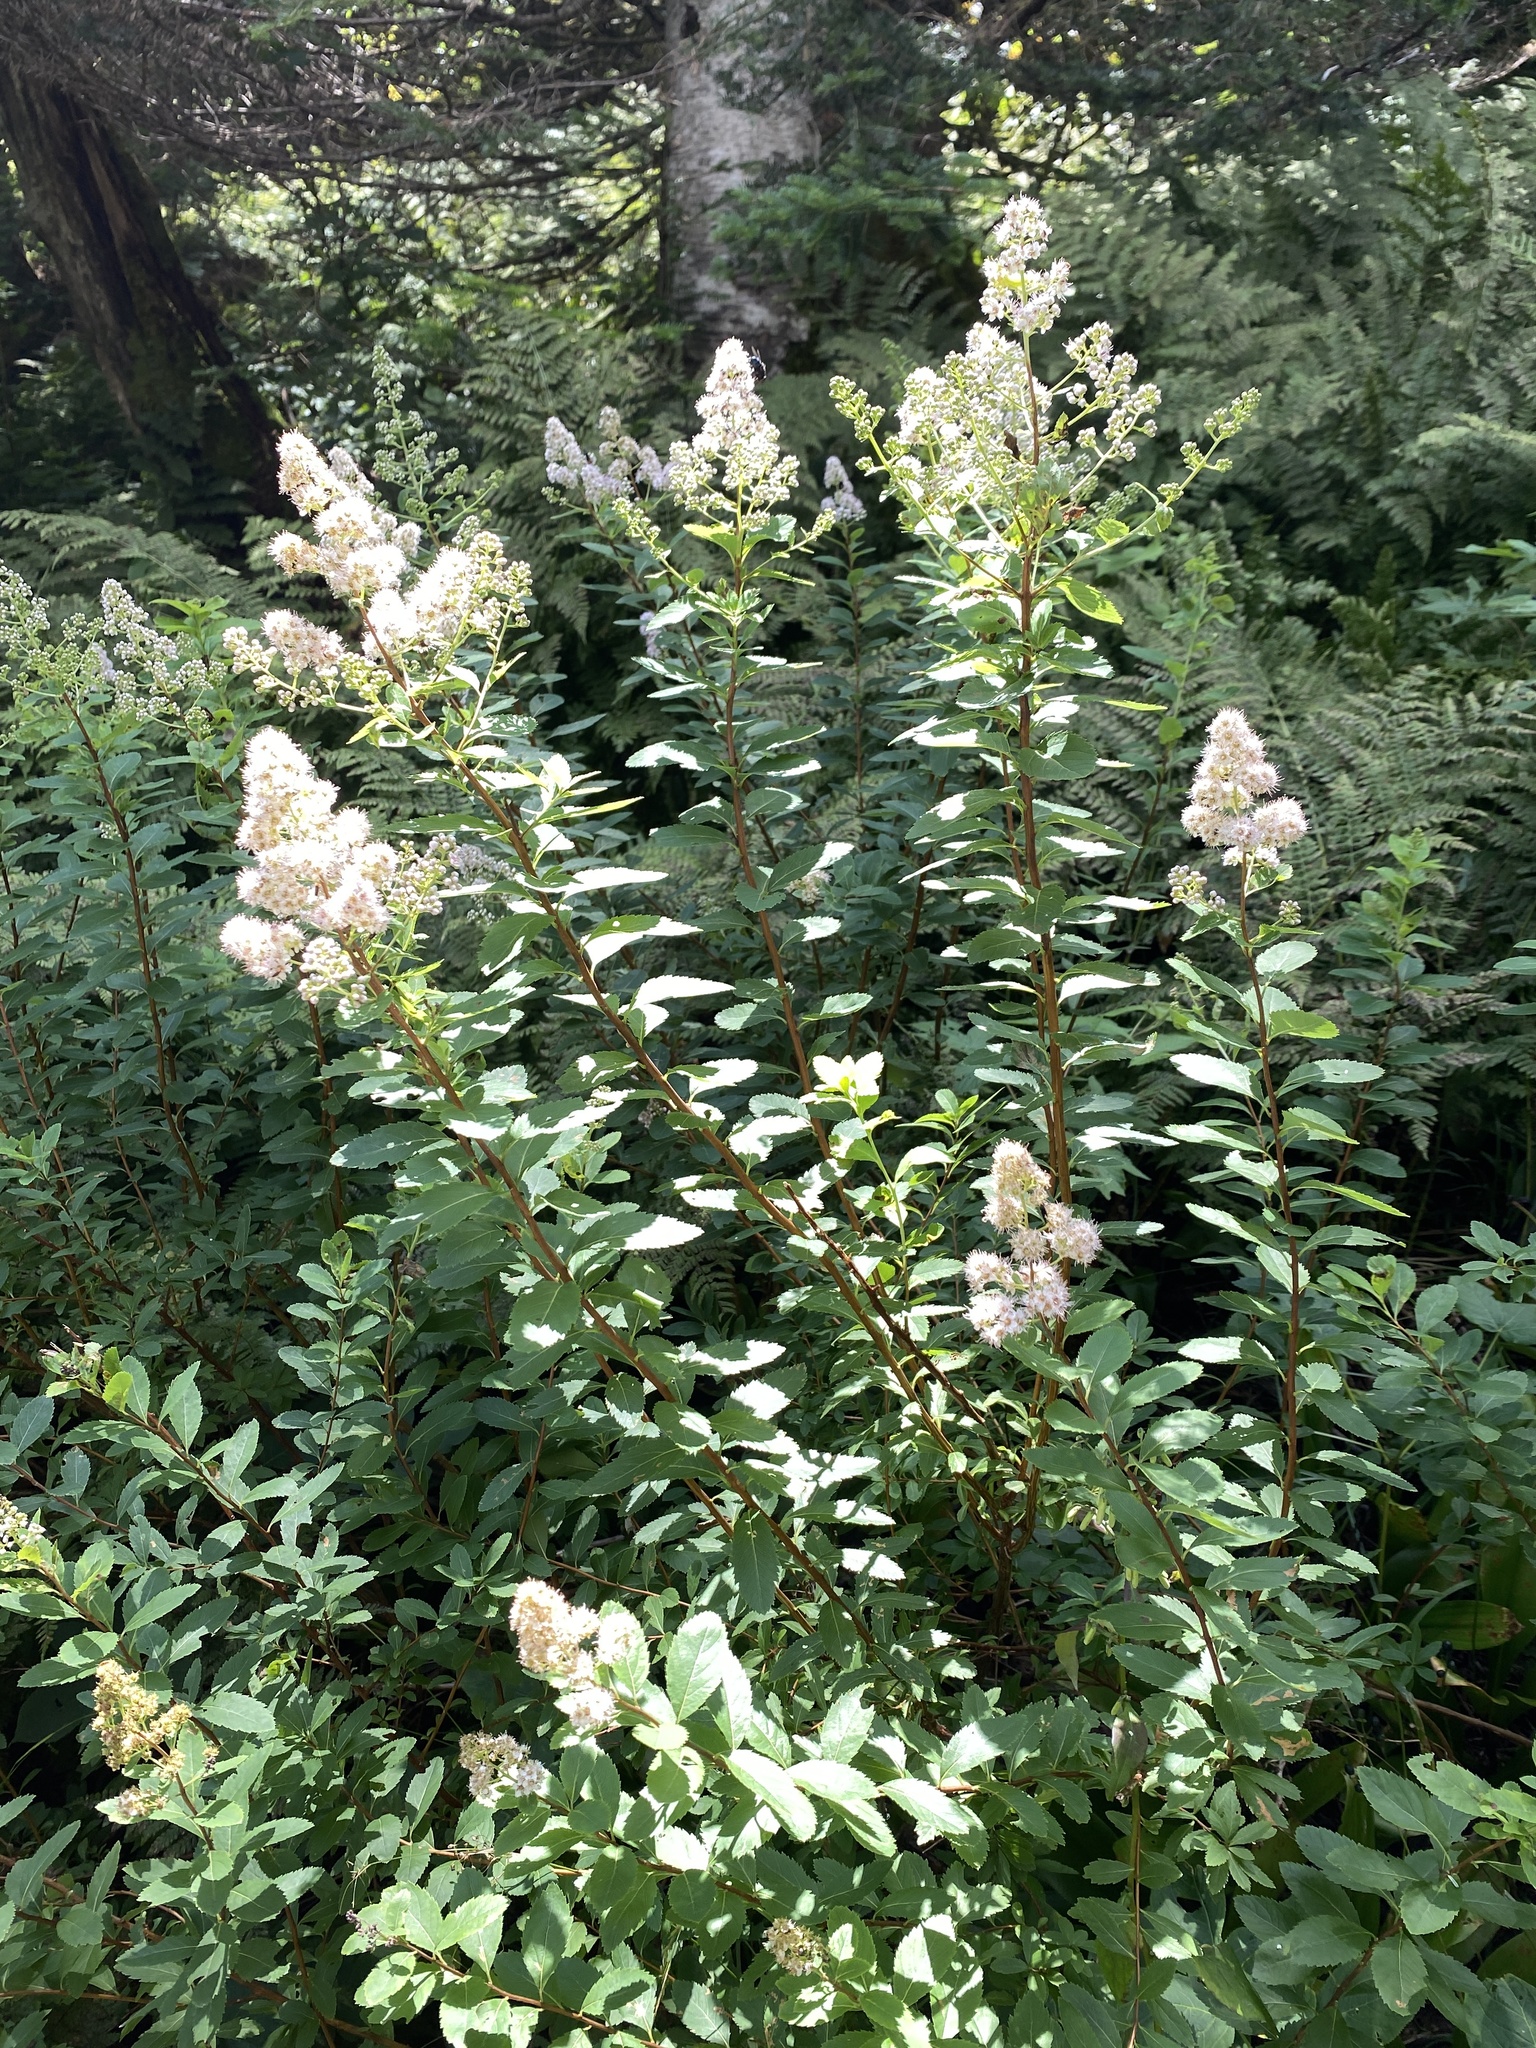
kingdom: Plantae
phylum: Tracheophyta
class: Magnoliopsida
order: Rosales
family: Rosaceae
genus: Spiraea
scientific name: Spiraea alba
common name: Pale bridewort
